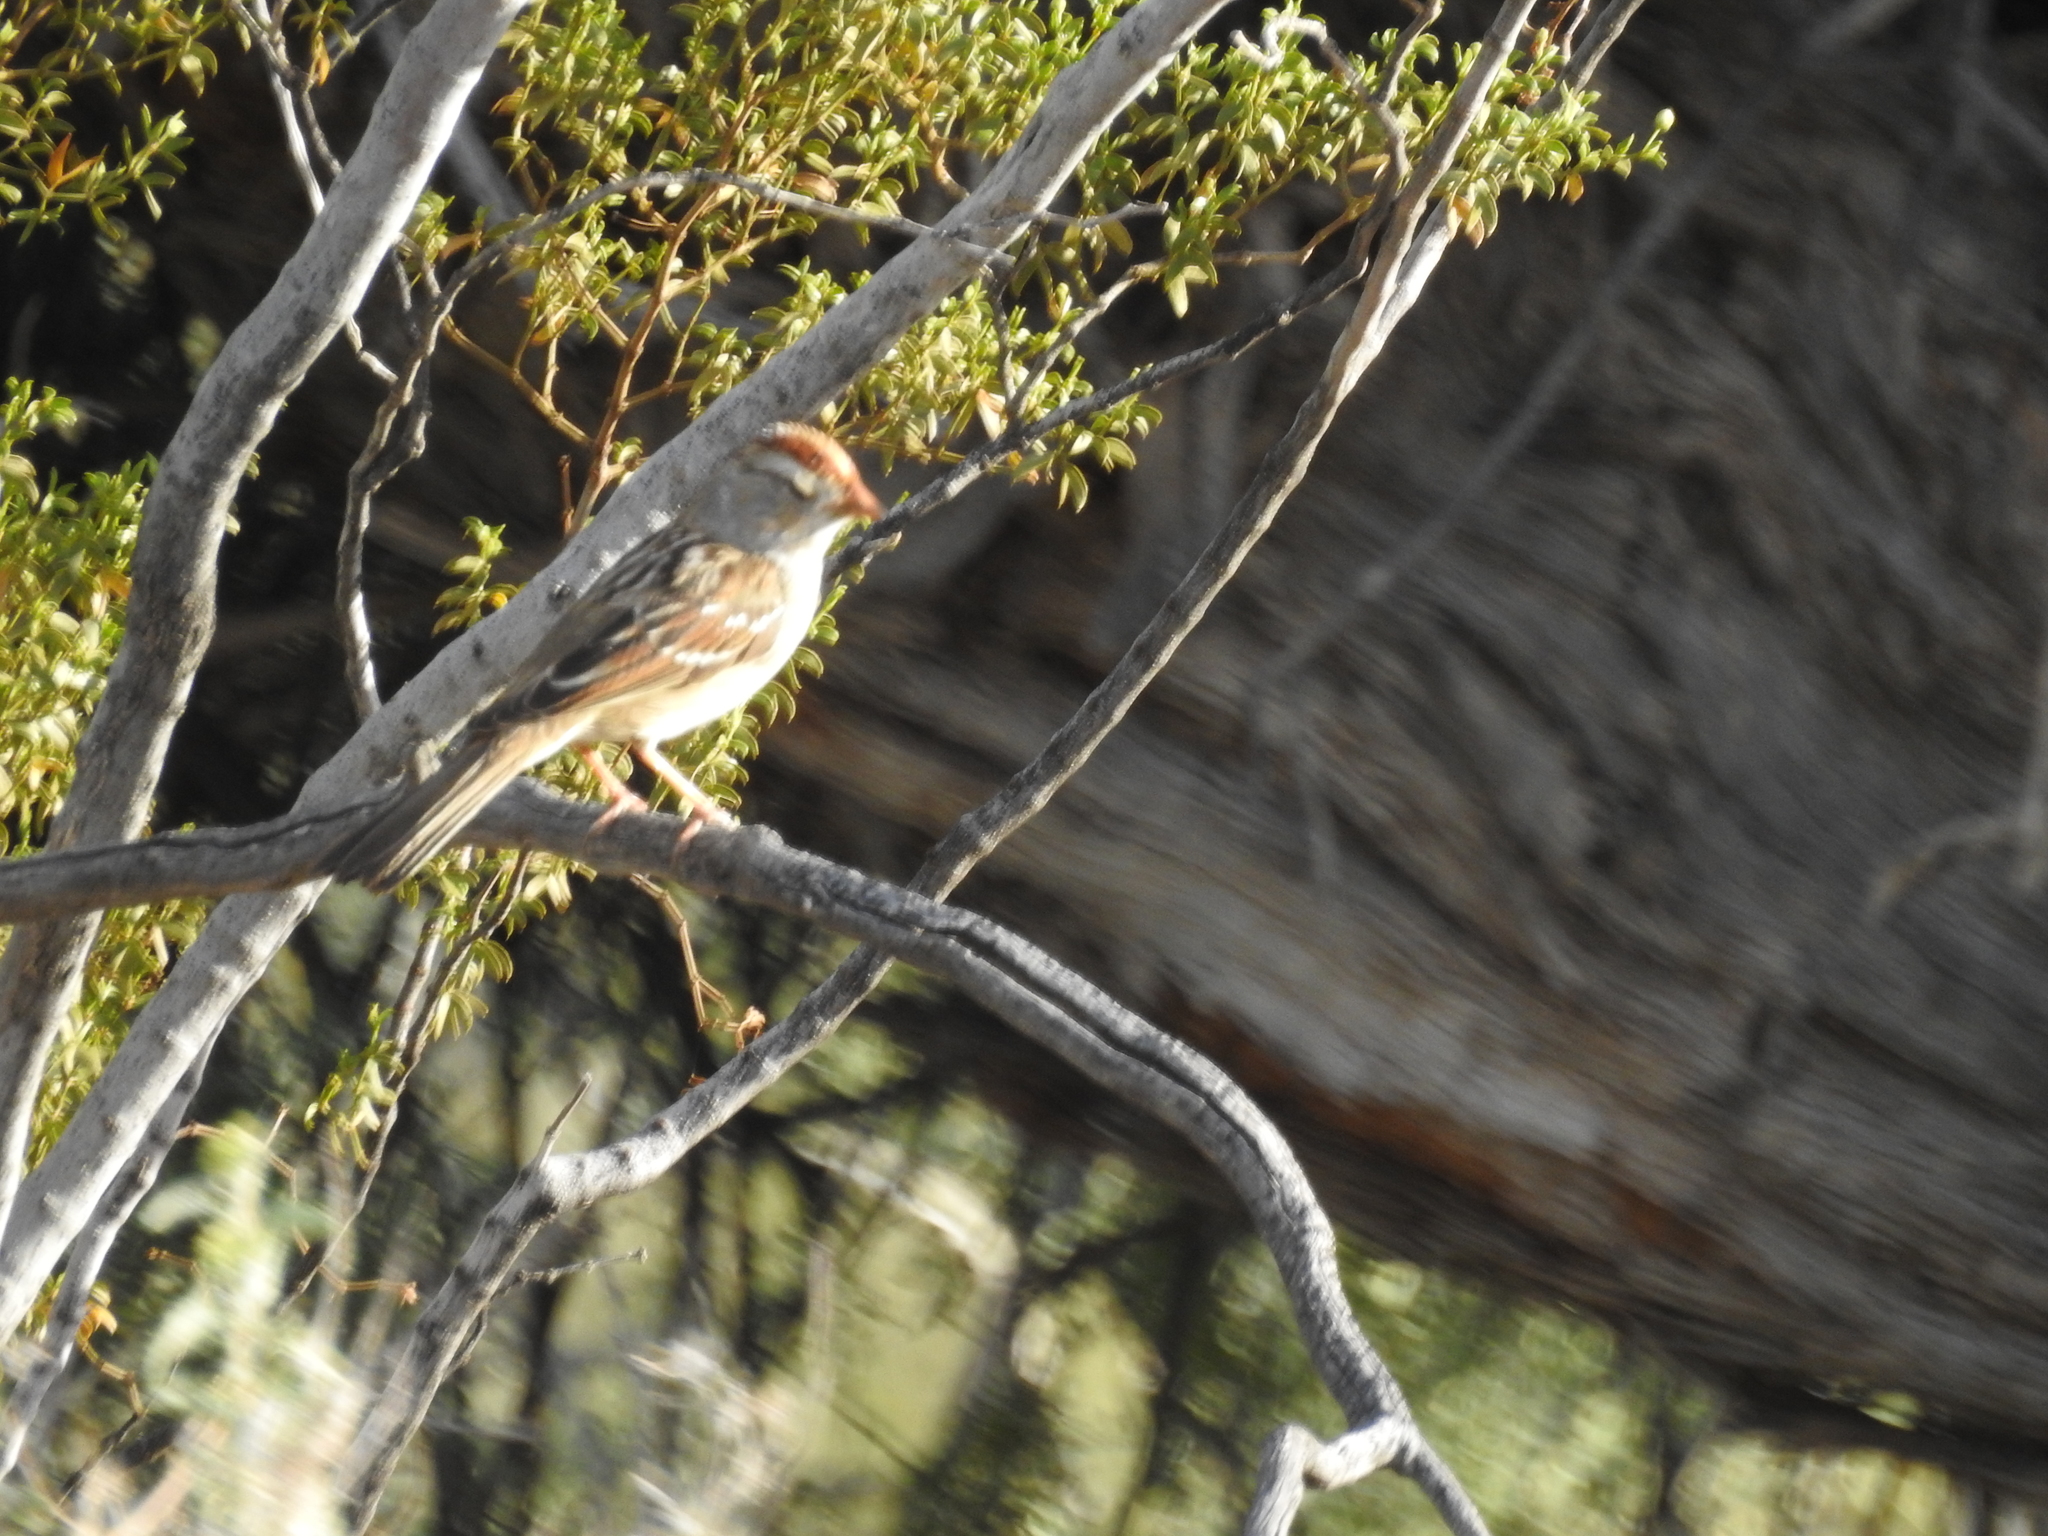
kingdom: Animalia
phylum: Chordata
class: Aves
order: Passeriformes
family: Passerellidae
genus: Zonotrichia
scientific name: Zonotrichia leucophrys
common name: White-crowned sparrow
